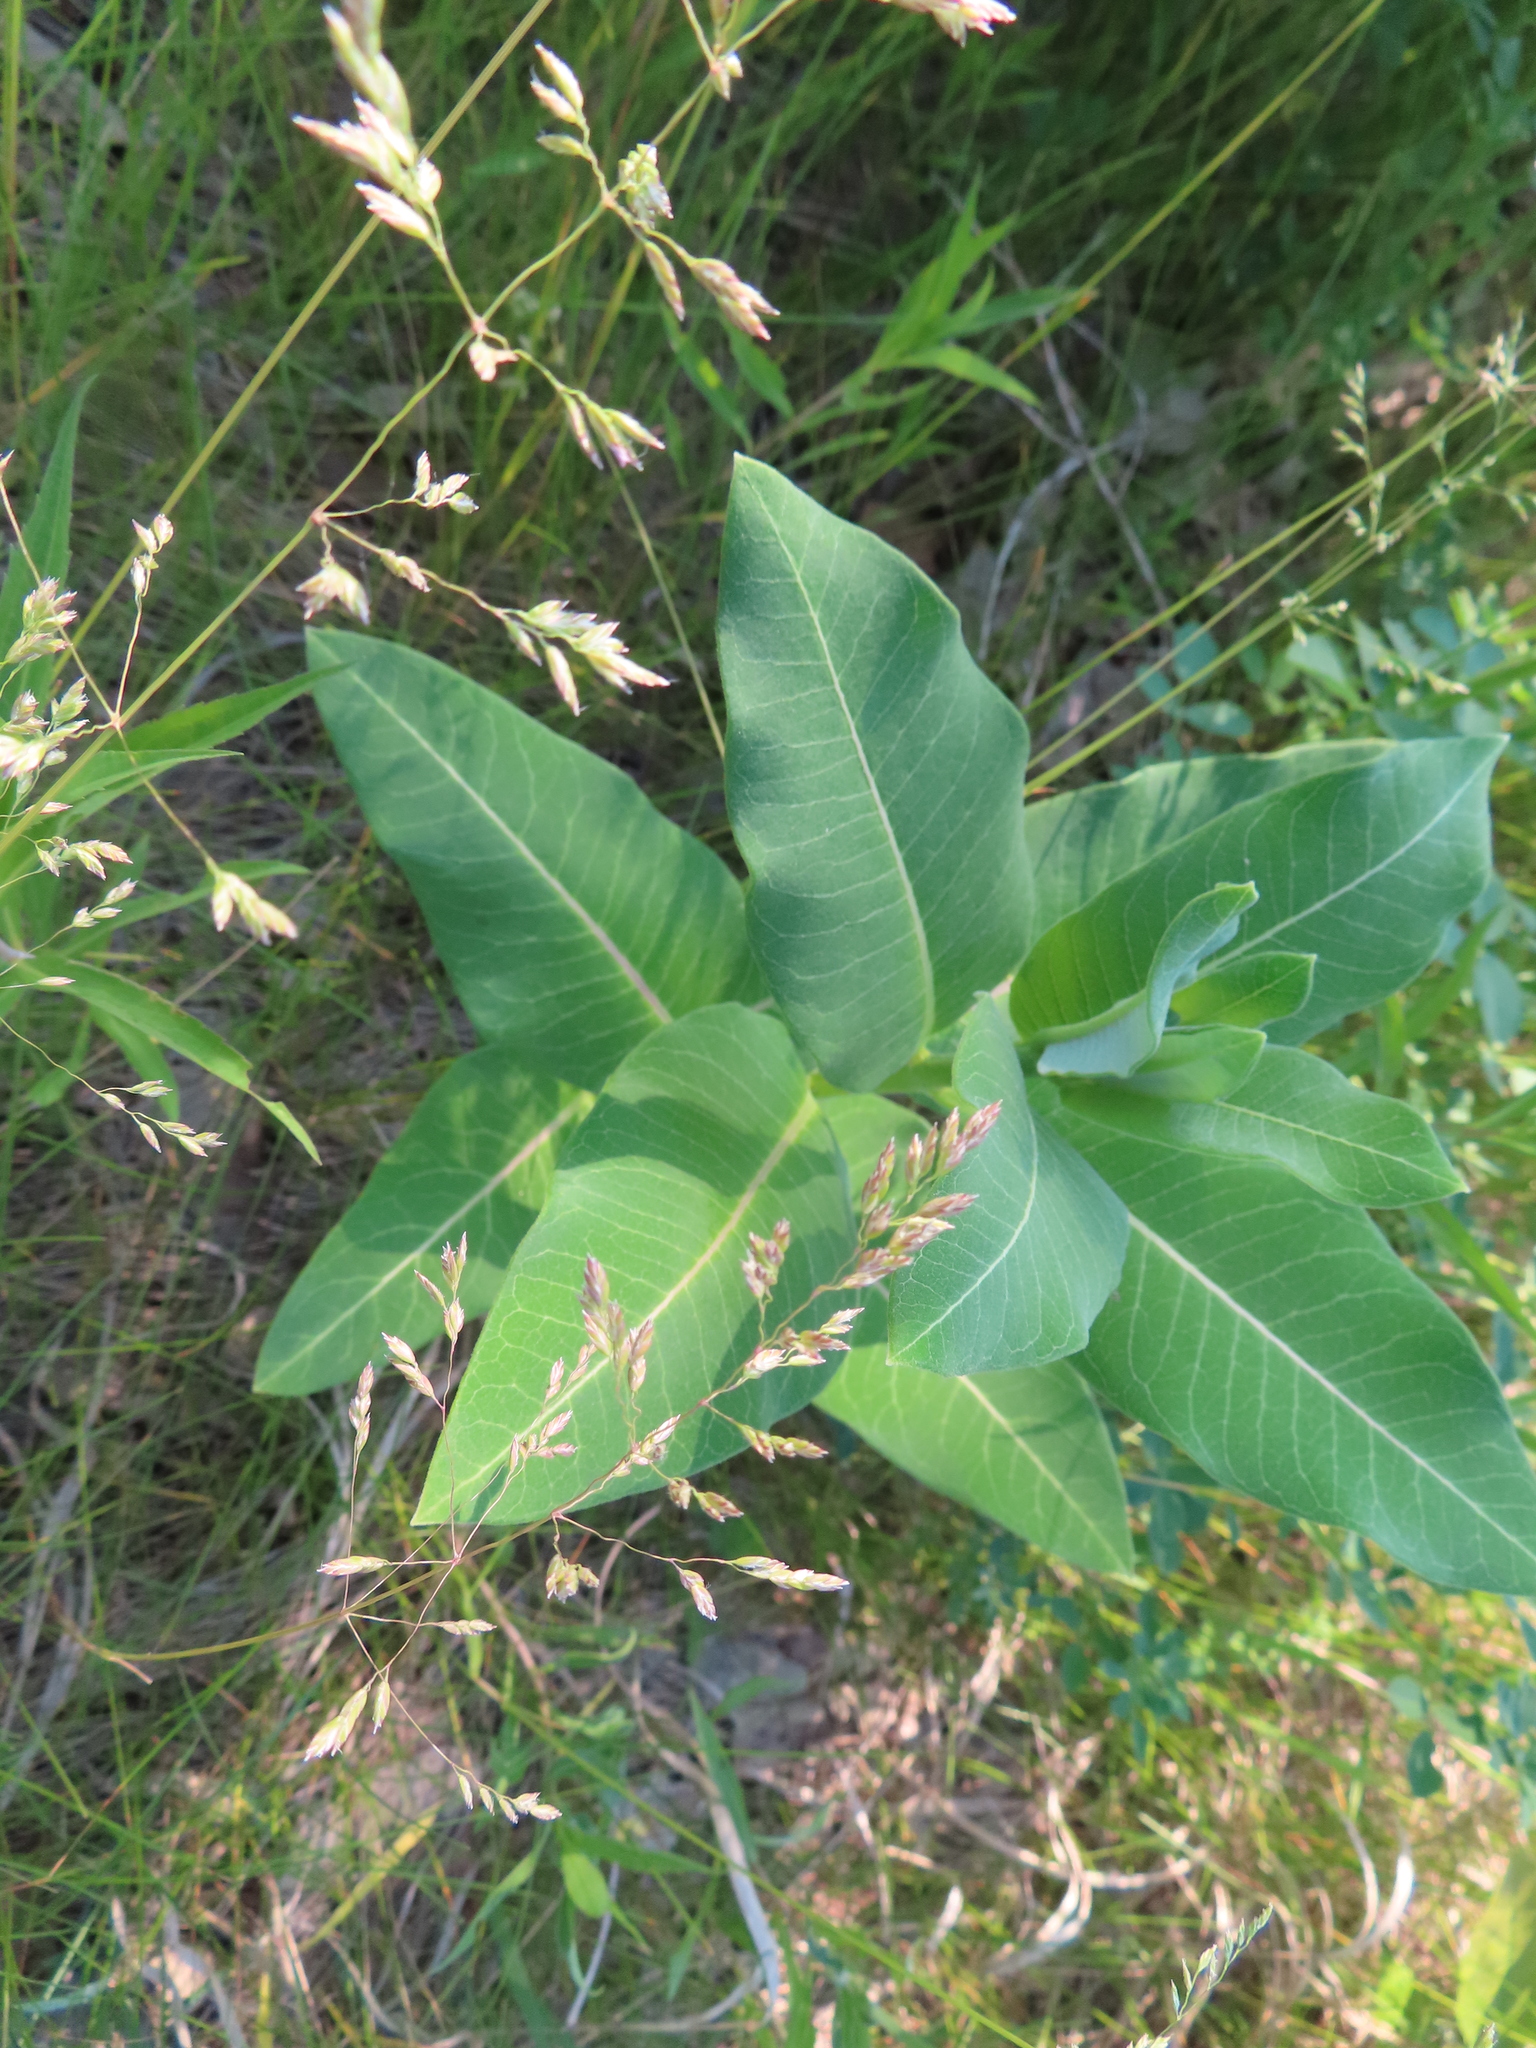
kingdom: Plantae
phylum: Tracheophyta
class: Magnoliopsida
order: Gentianales
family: Apocynaceae
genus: Asclepias
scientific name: Asclepias syriaca
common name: Common milkweed
